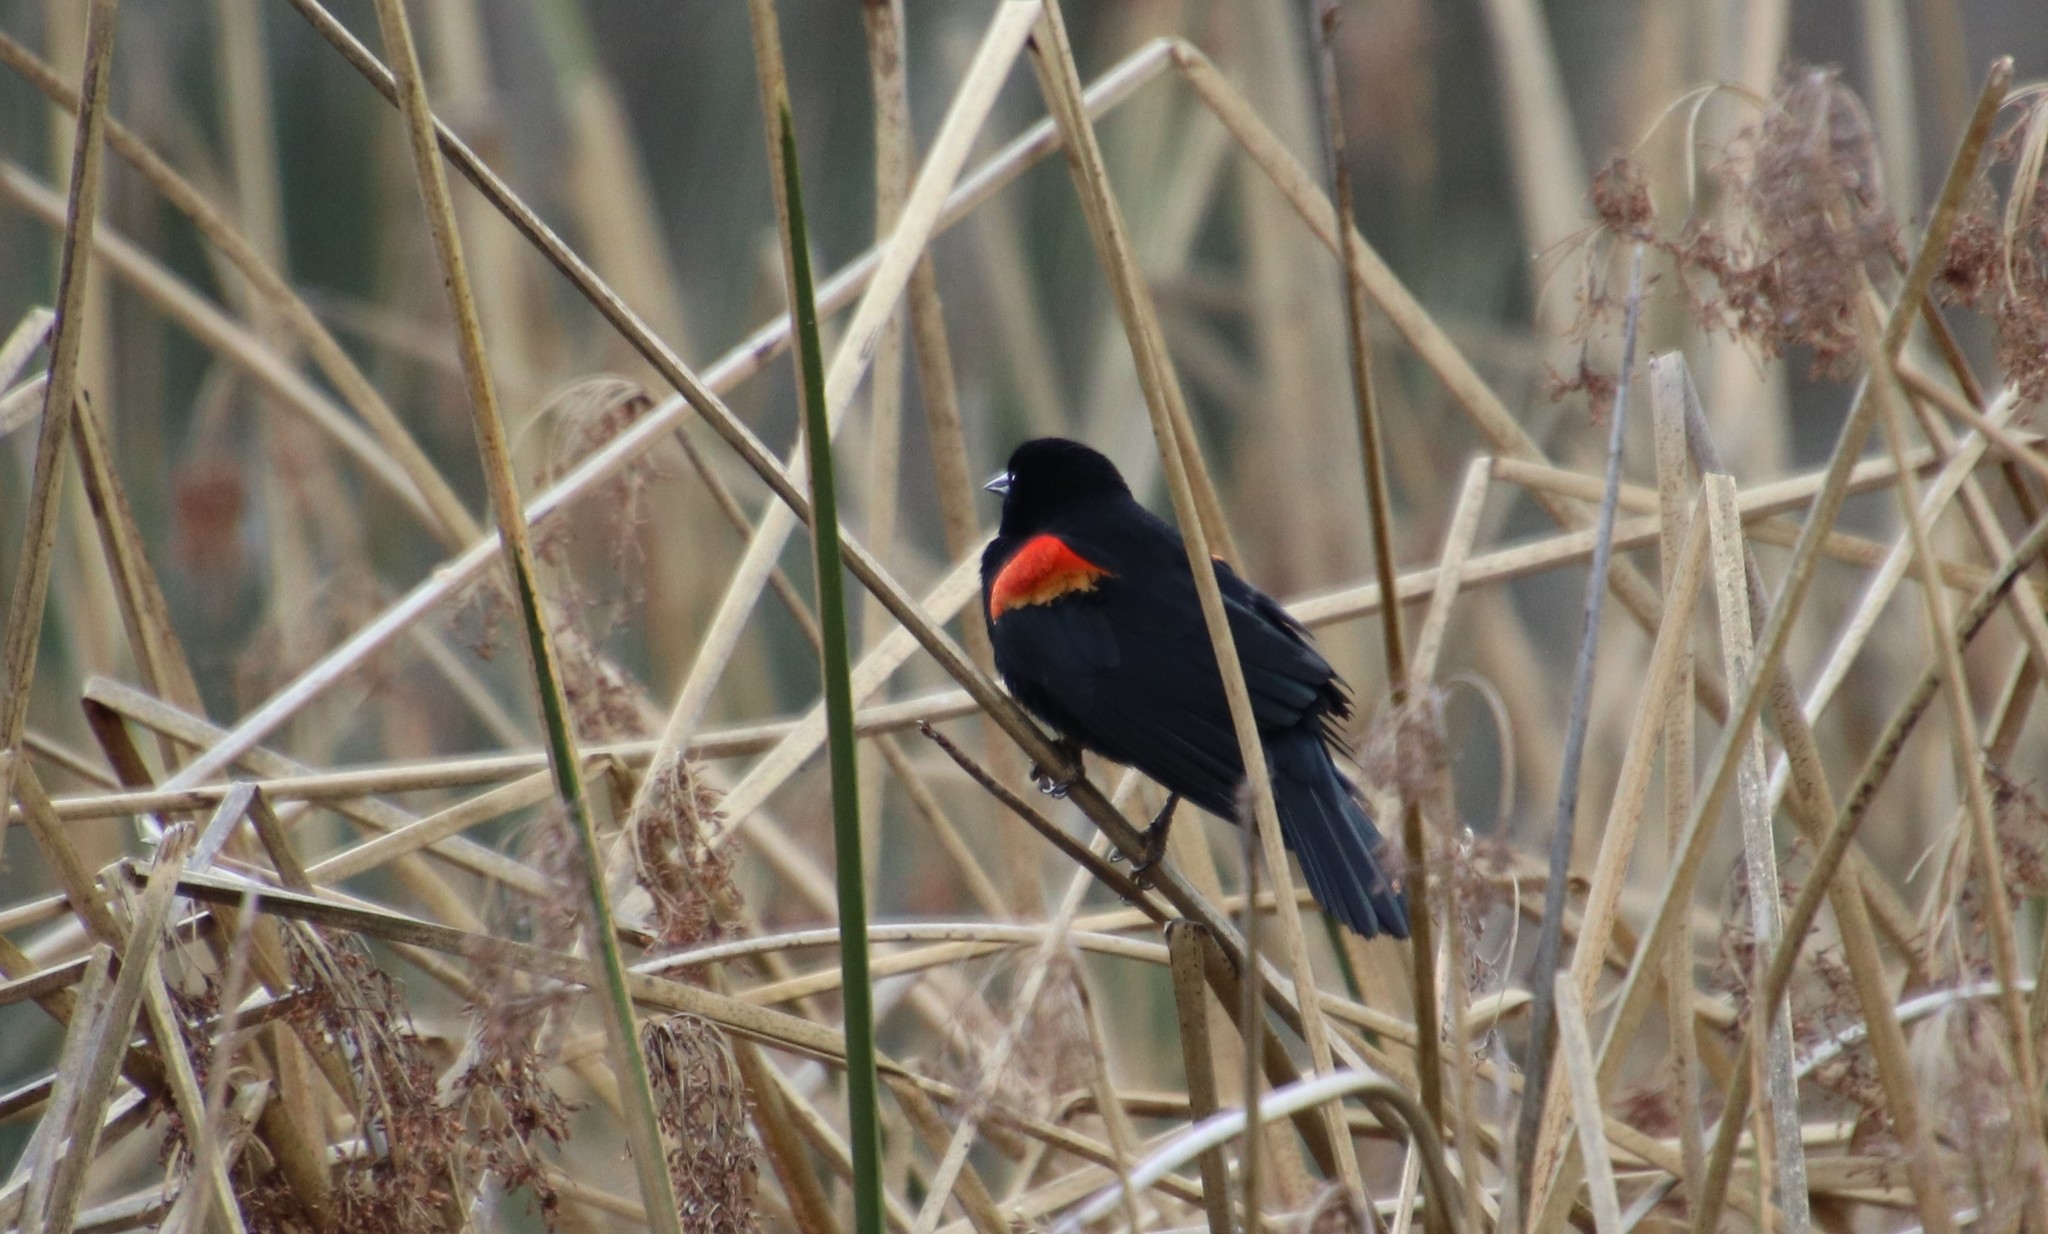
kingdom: Animalia
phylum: Chordata
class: Aves
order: Passeriformes
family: Icteridae
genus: Agelaius
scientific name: Agelaius phoeniceus
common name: Red-winged blackbird
